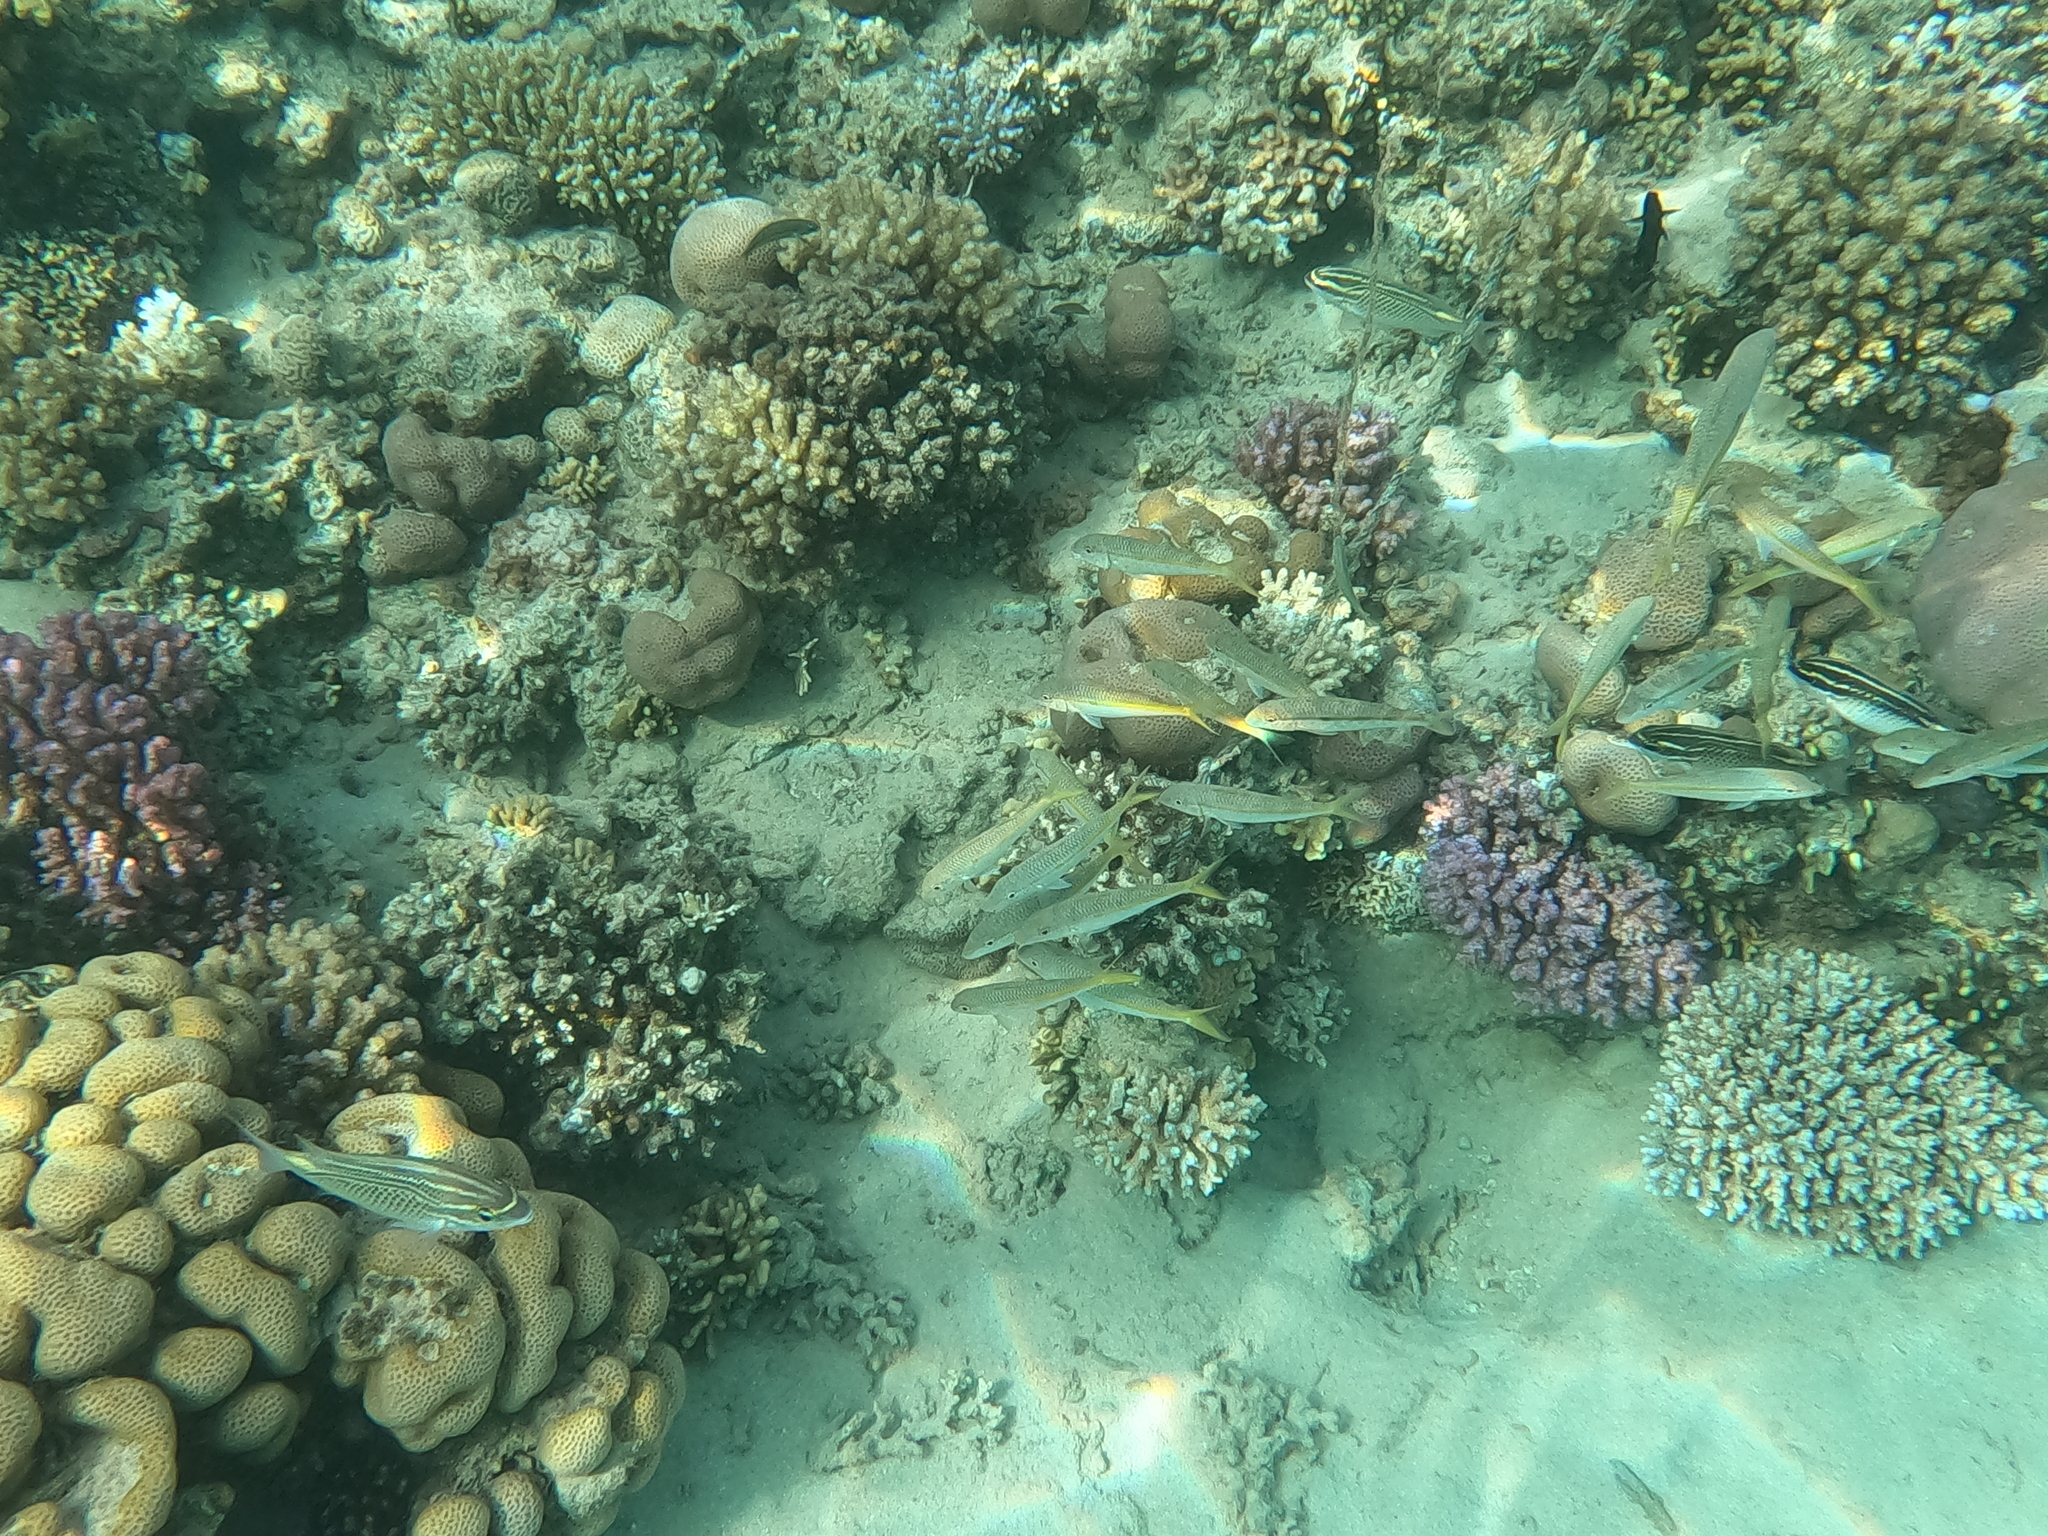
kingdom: Animalia
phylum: Chordata
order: Perciformes
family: Mullidae
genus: Mulloidichthys
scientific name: Mulloidichthys flavolineatus
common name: Yellowstripe goatfish
